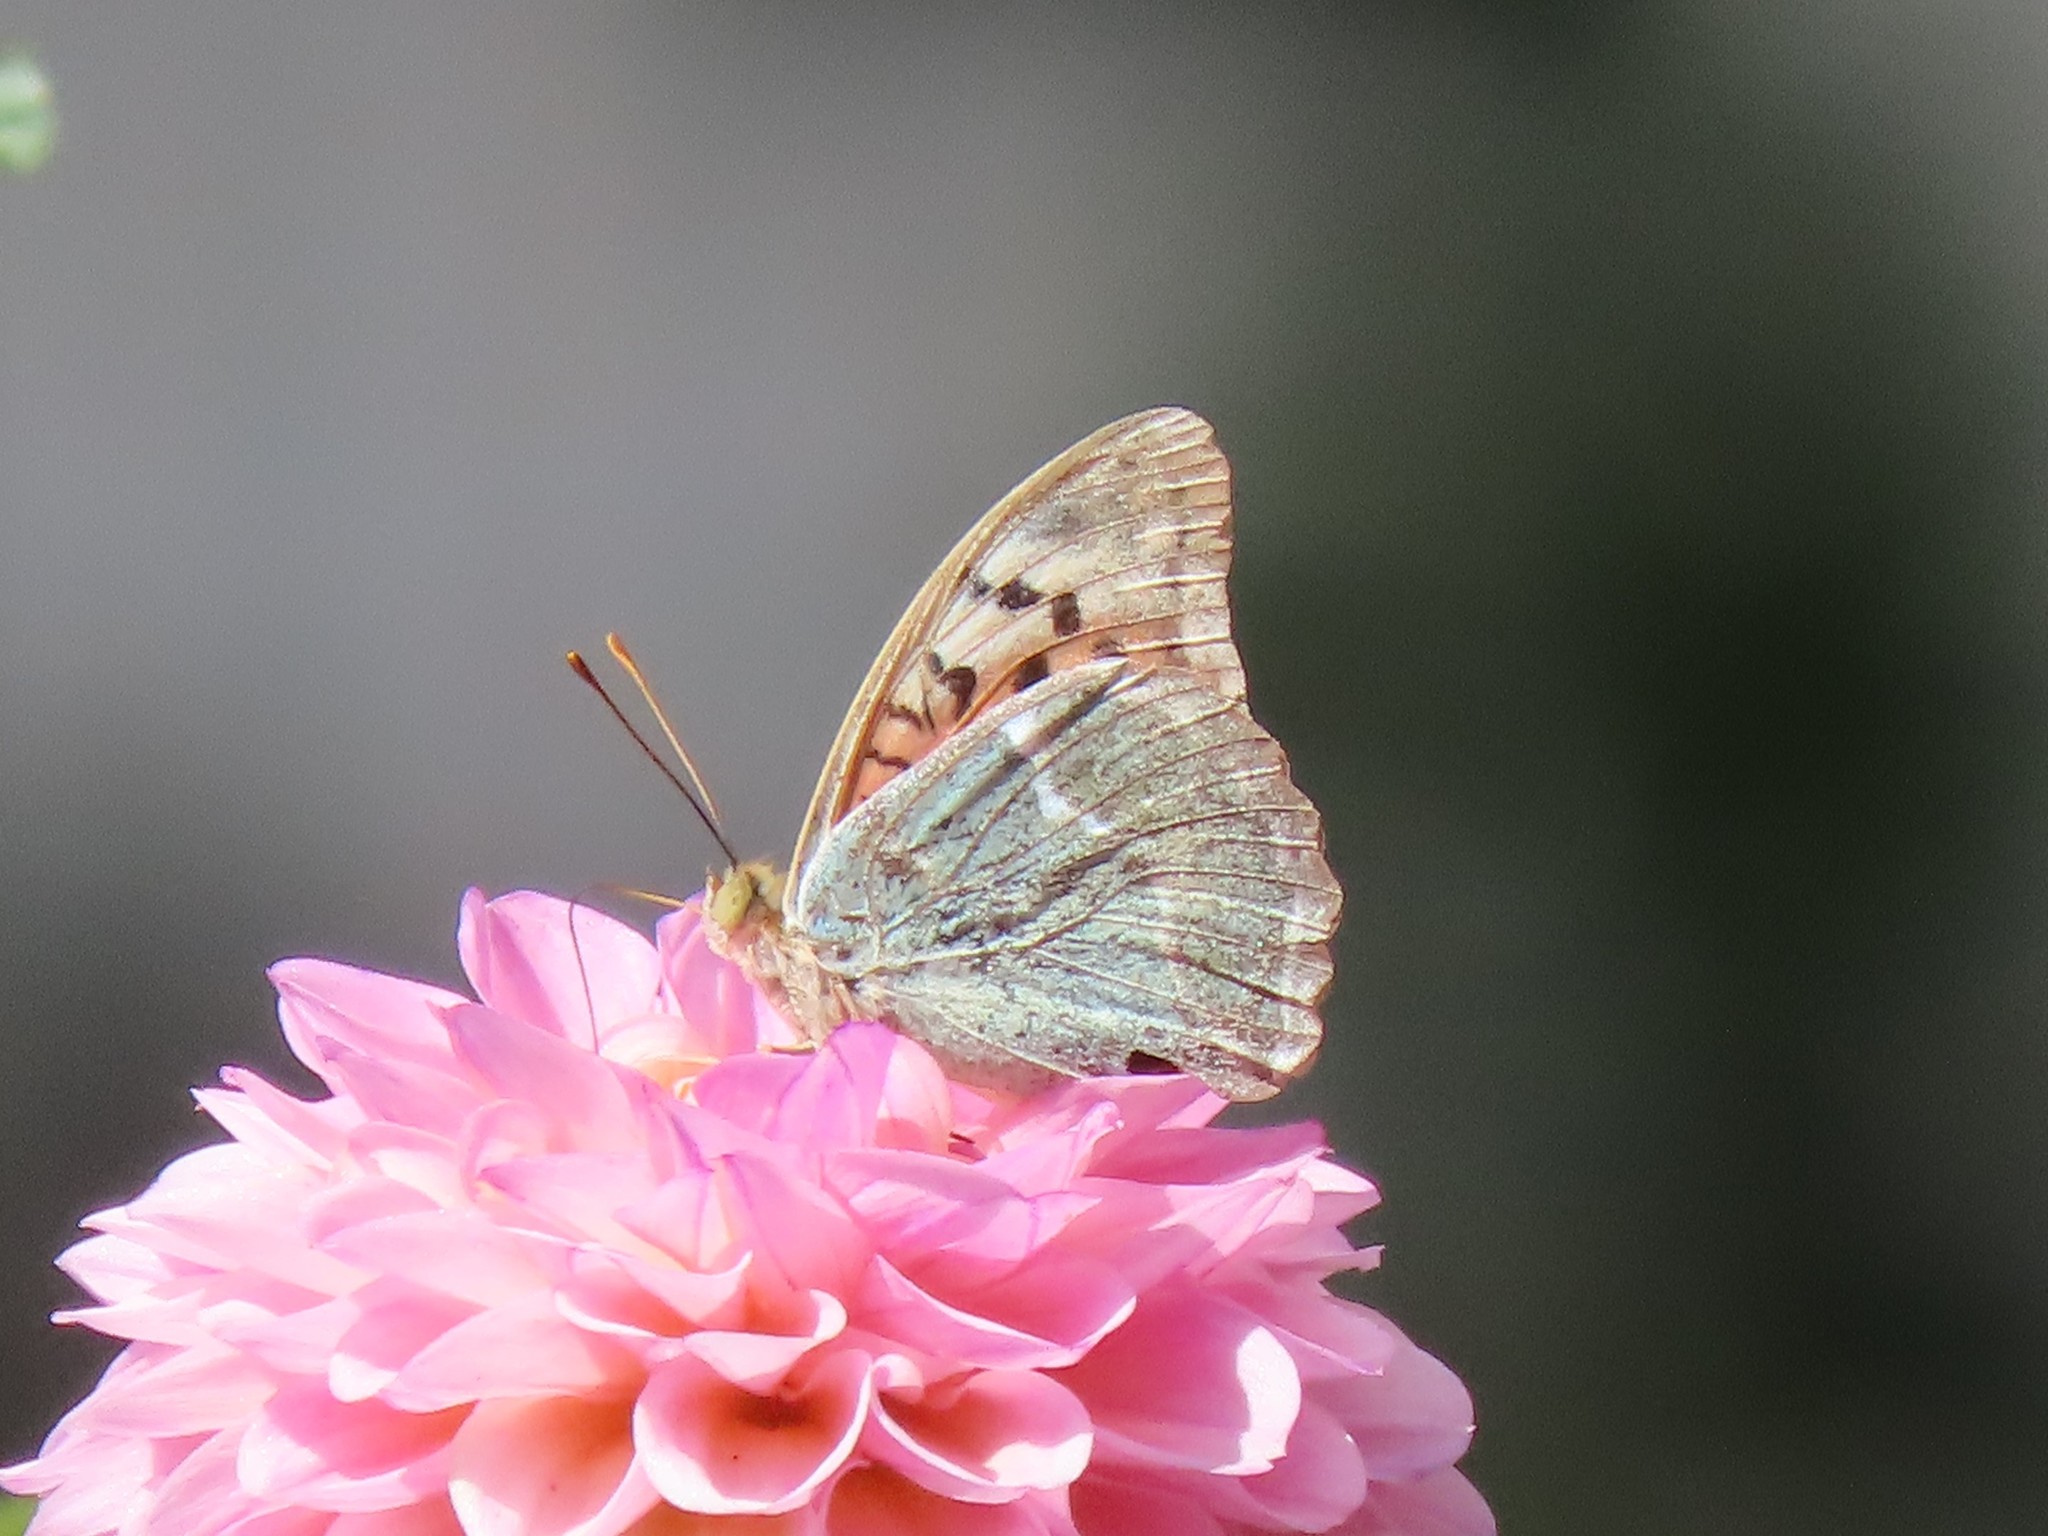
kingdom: Animalia
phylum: Arthropoda
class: Insecta
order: Lepidoptera
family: Nymphalidae
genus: Damora
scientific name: Damora pandora
